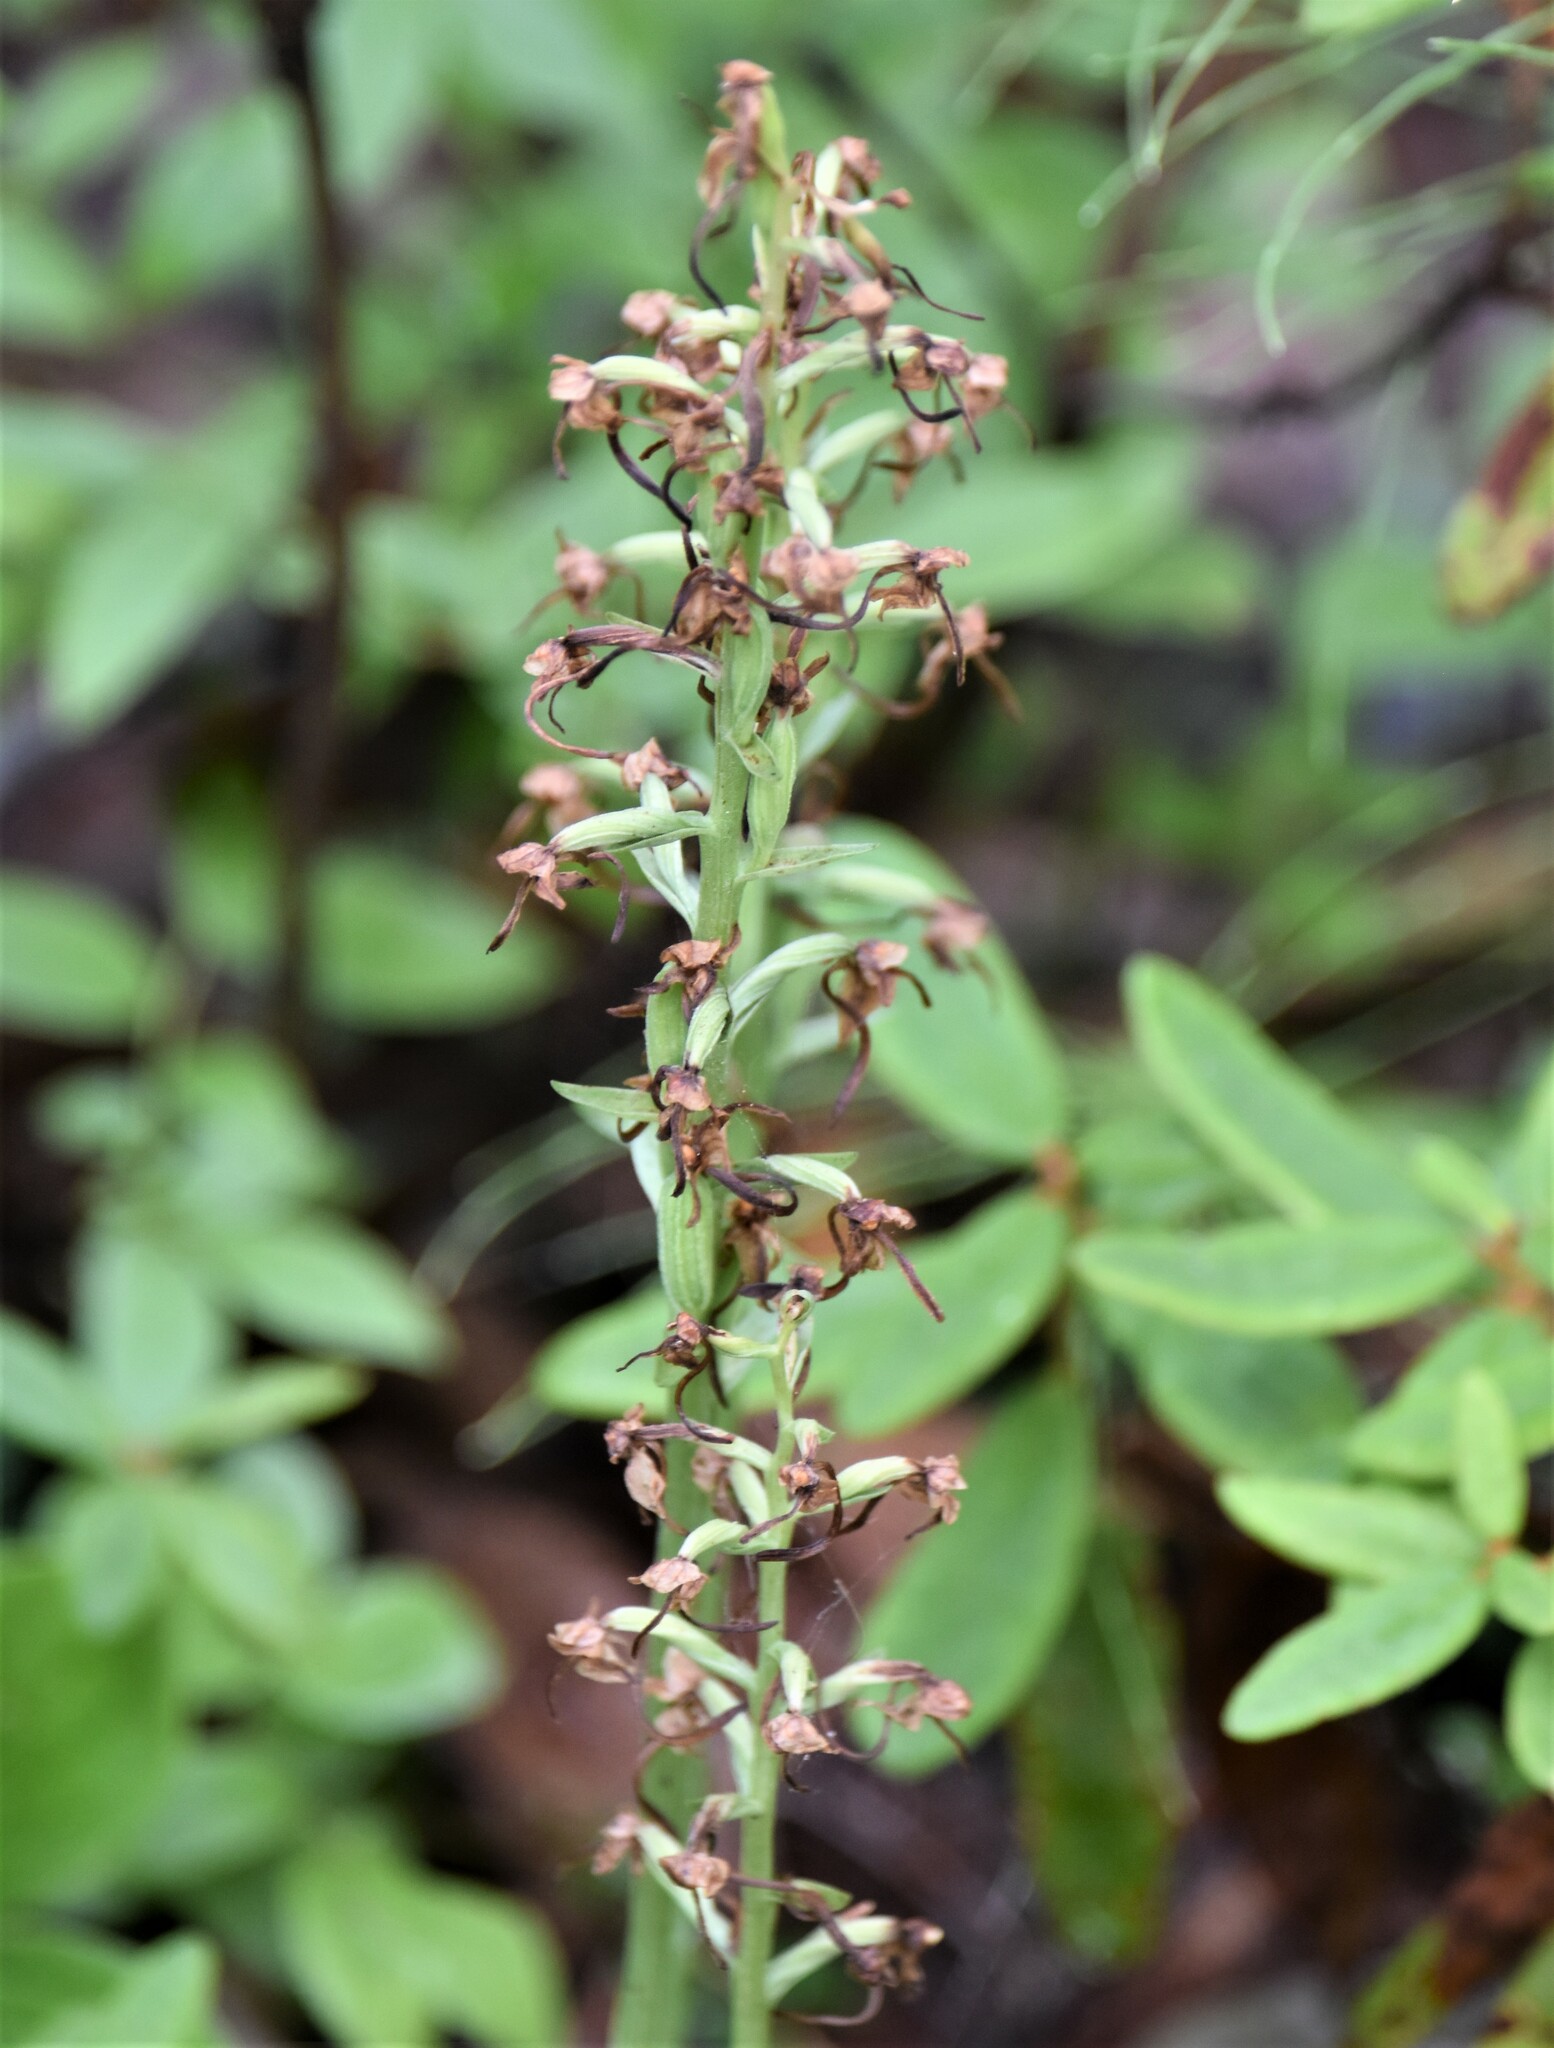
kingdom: Plantae
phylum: Tracheophyta
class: Liliopsida
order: Asparagales
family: Orchidaceae
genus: Platanthera
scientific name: Platanthera orbiculata
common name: Large round-leaved orchid
